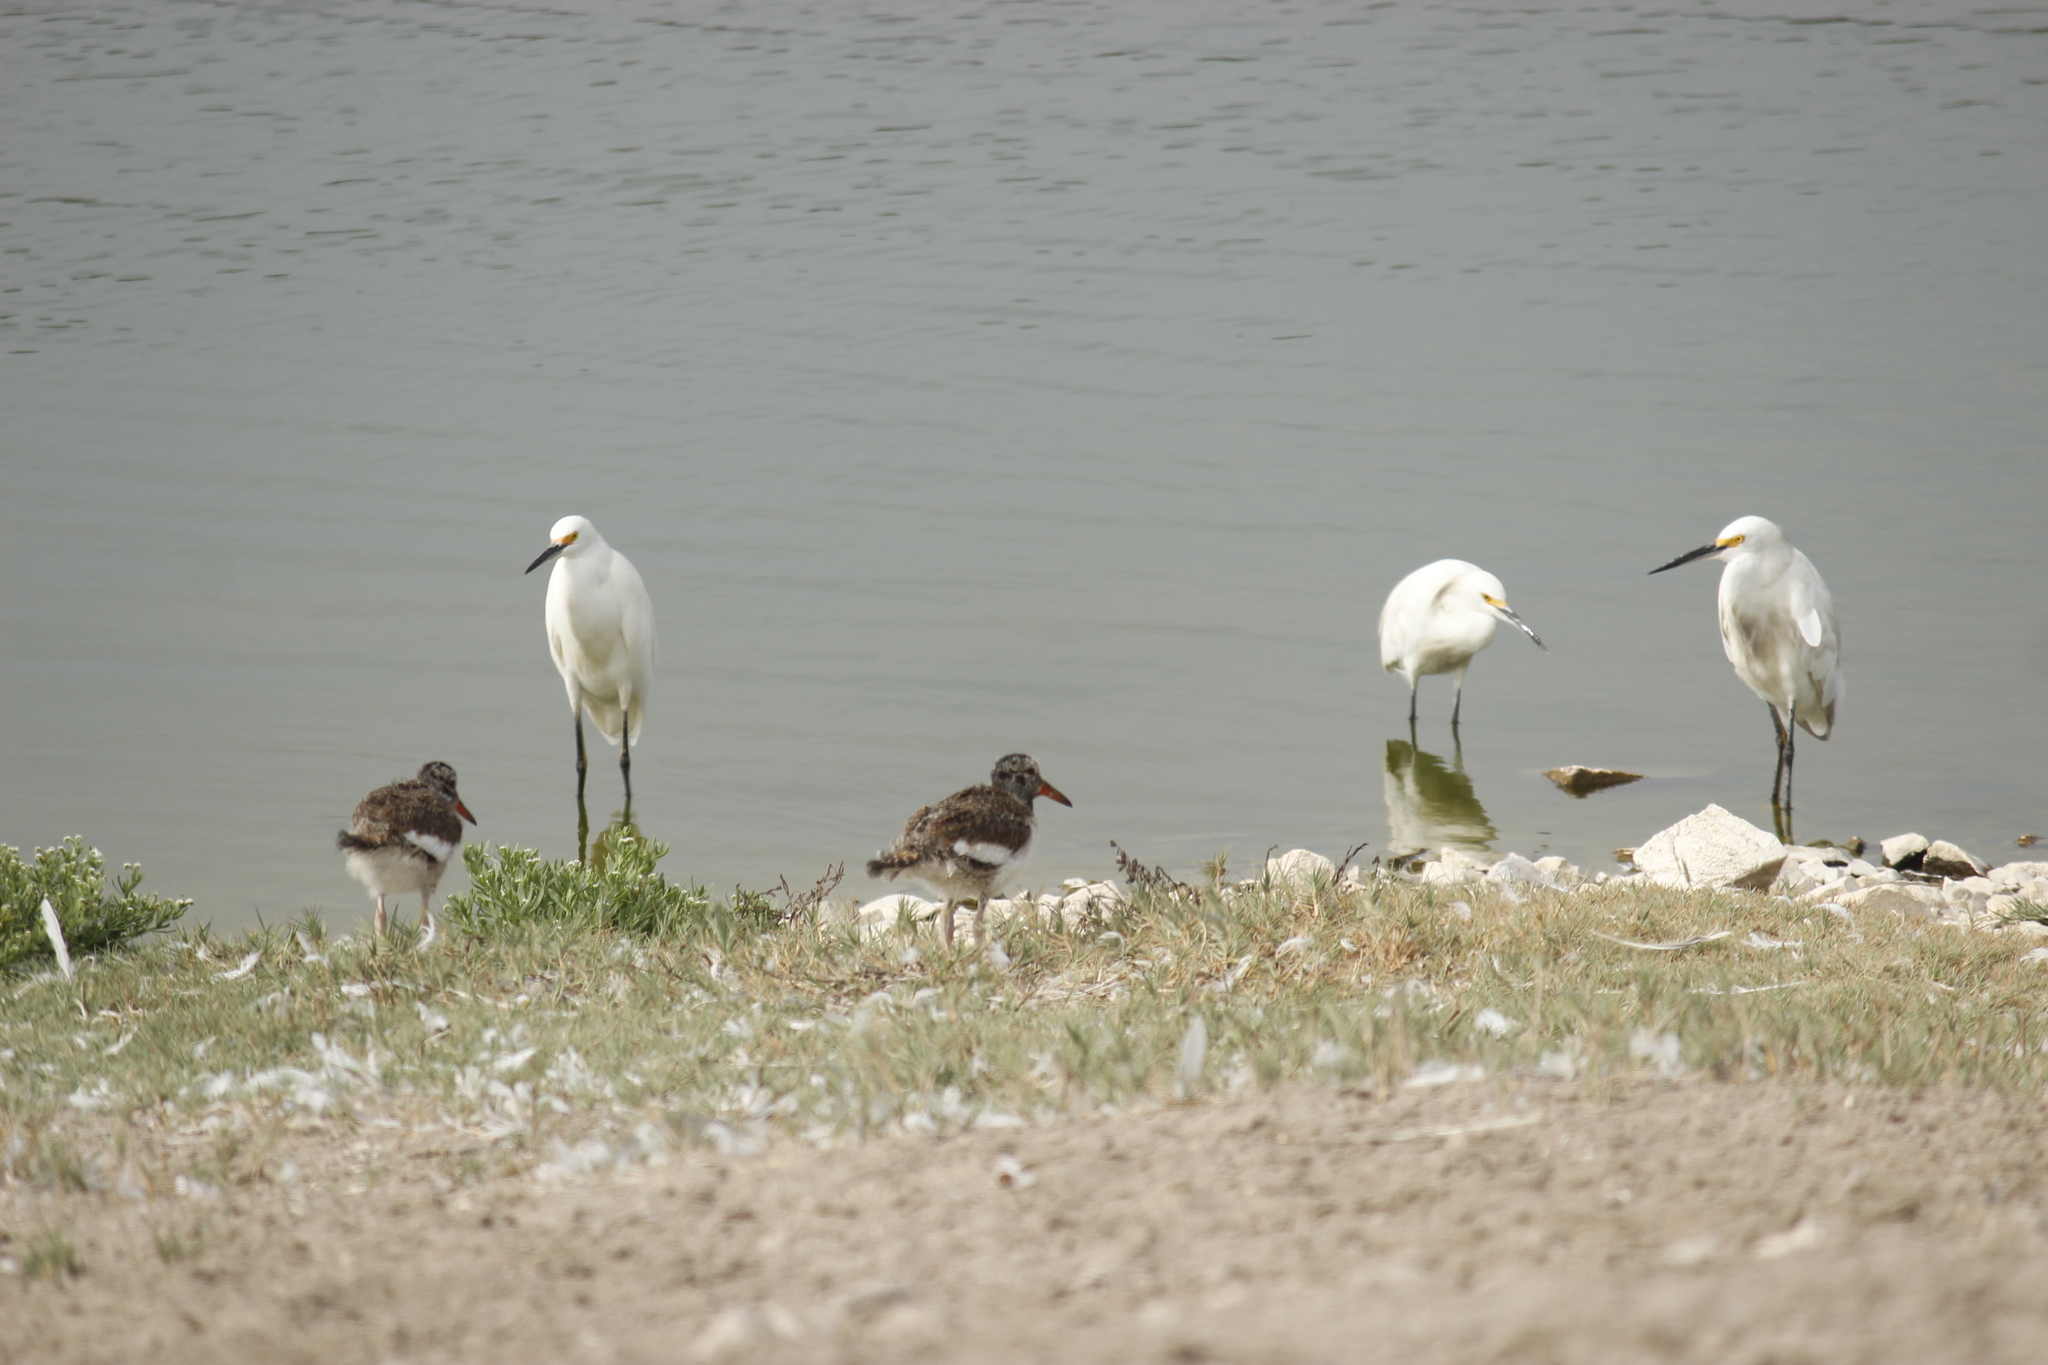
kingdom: Animalia
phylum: Chordata
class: Aves
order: Charadriiformes
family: Haematopodidae
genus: Haematopus
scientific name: Haematopus palliatus
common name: American oystercatcher
